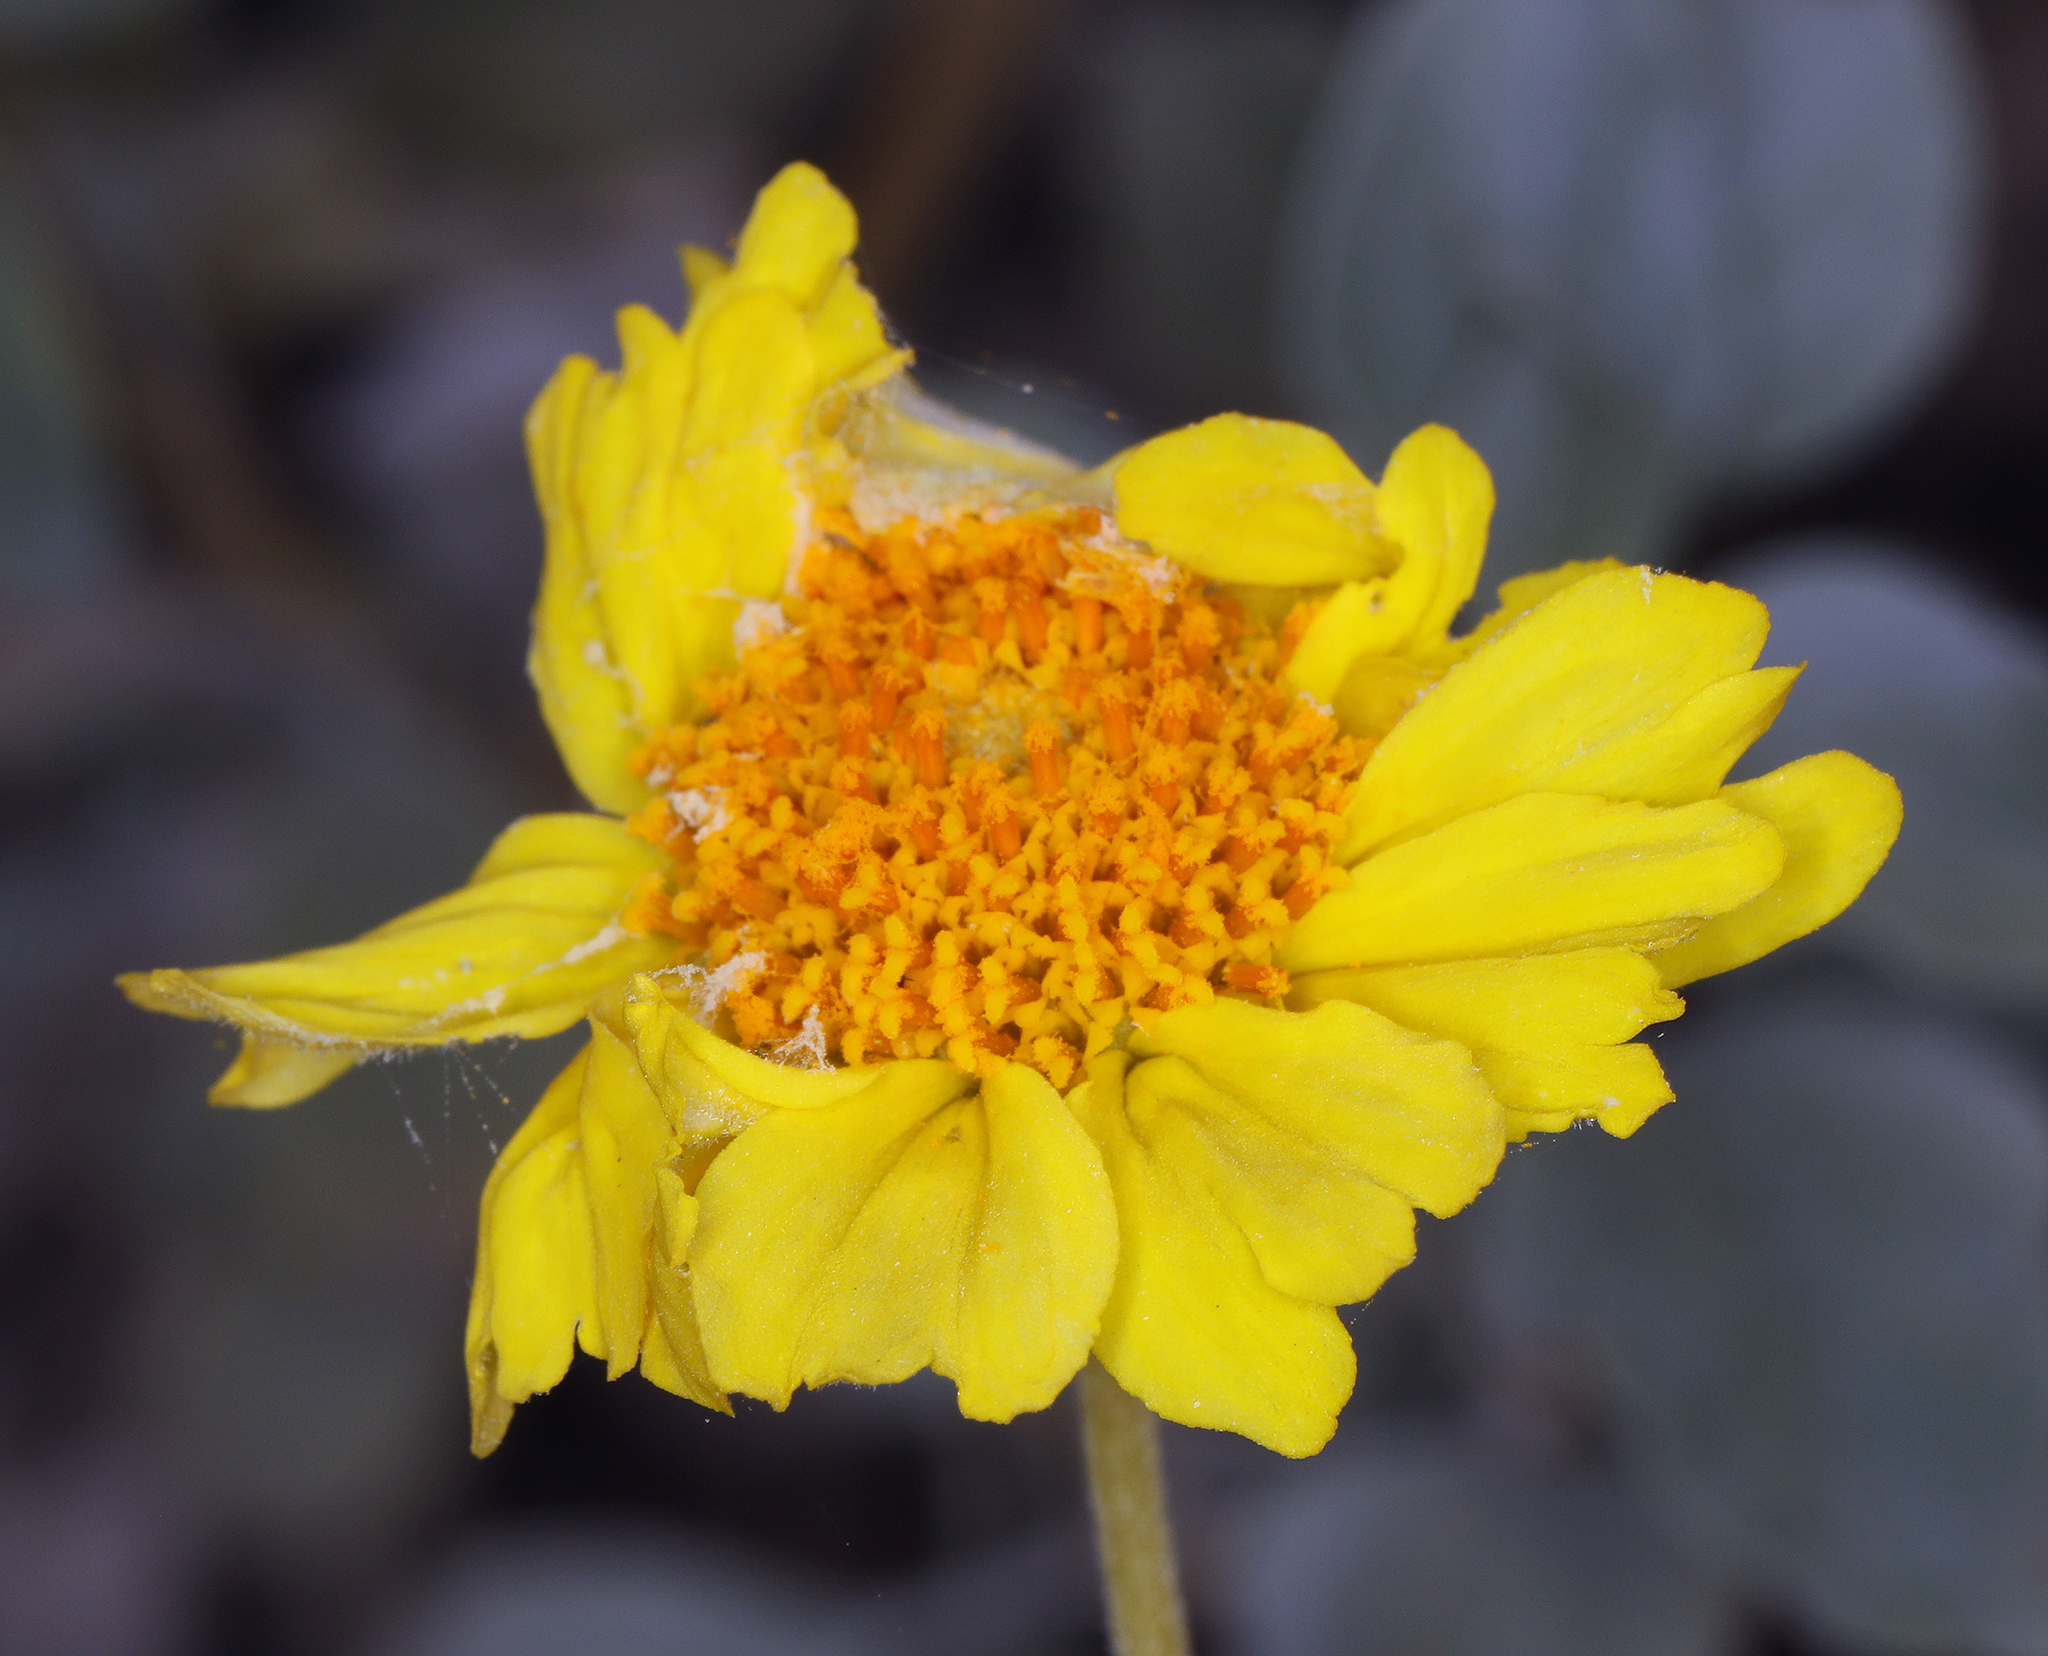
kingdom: Plantae
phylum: Tracheophyta
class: Magnoliopsida
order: Asterales
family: Asteraceae
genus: Encelia
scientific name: Encelia actoni
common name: Acton encelia
